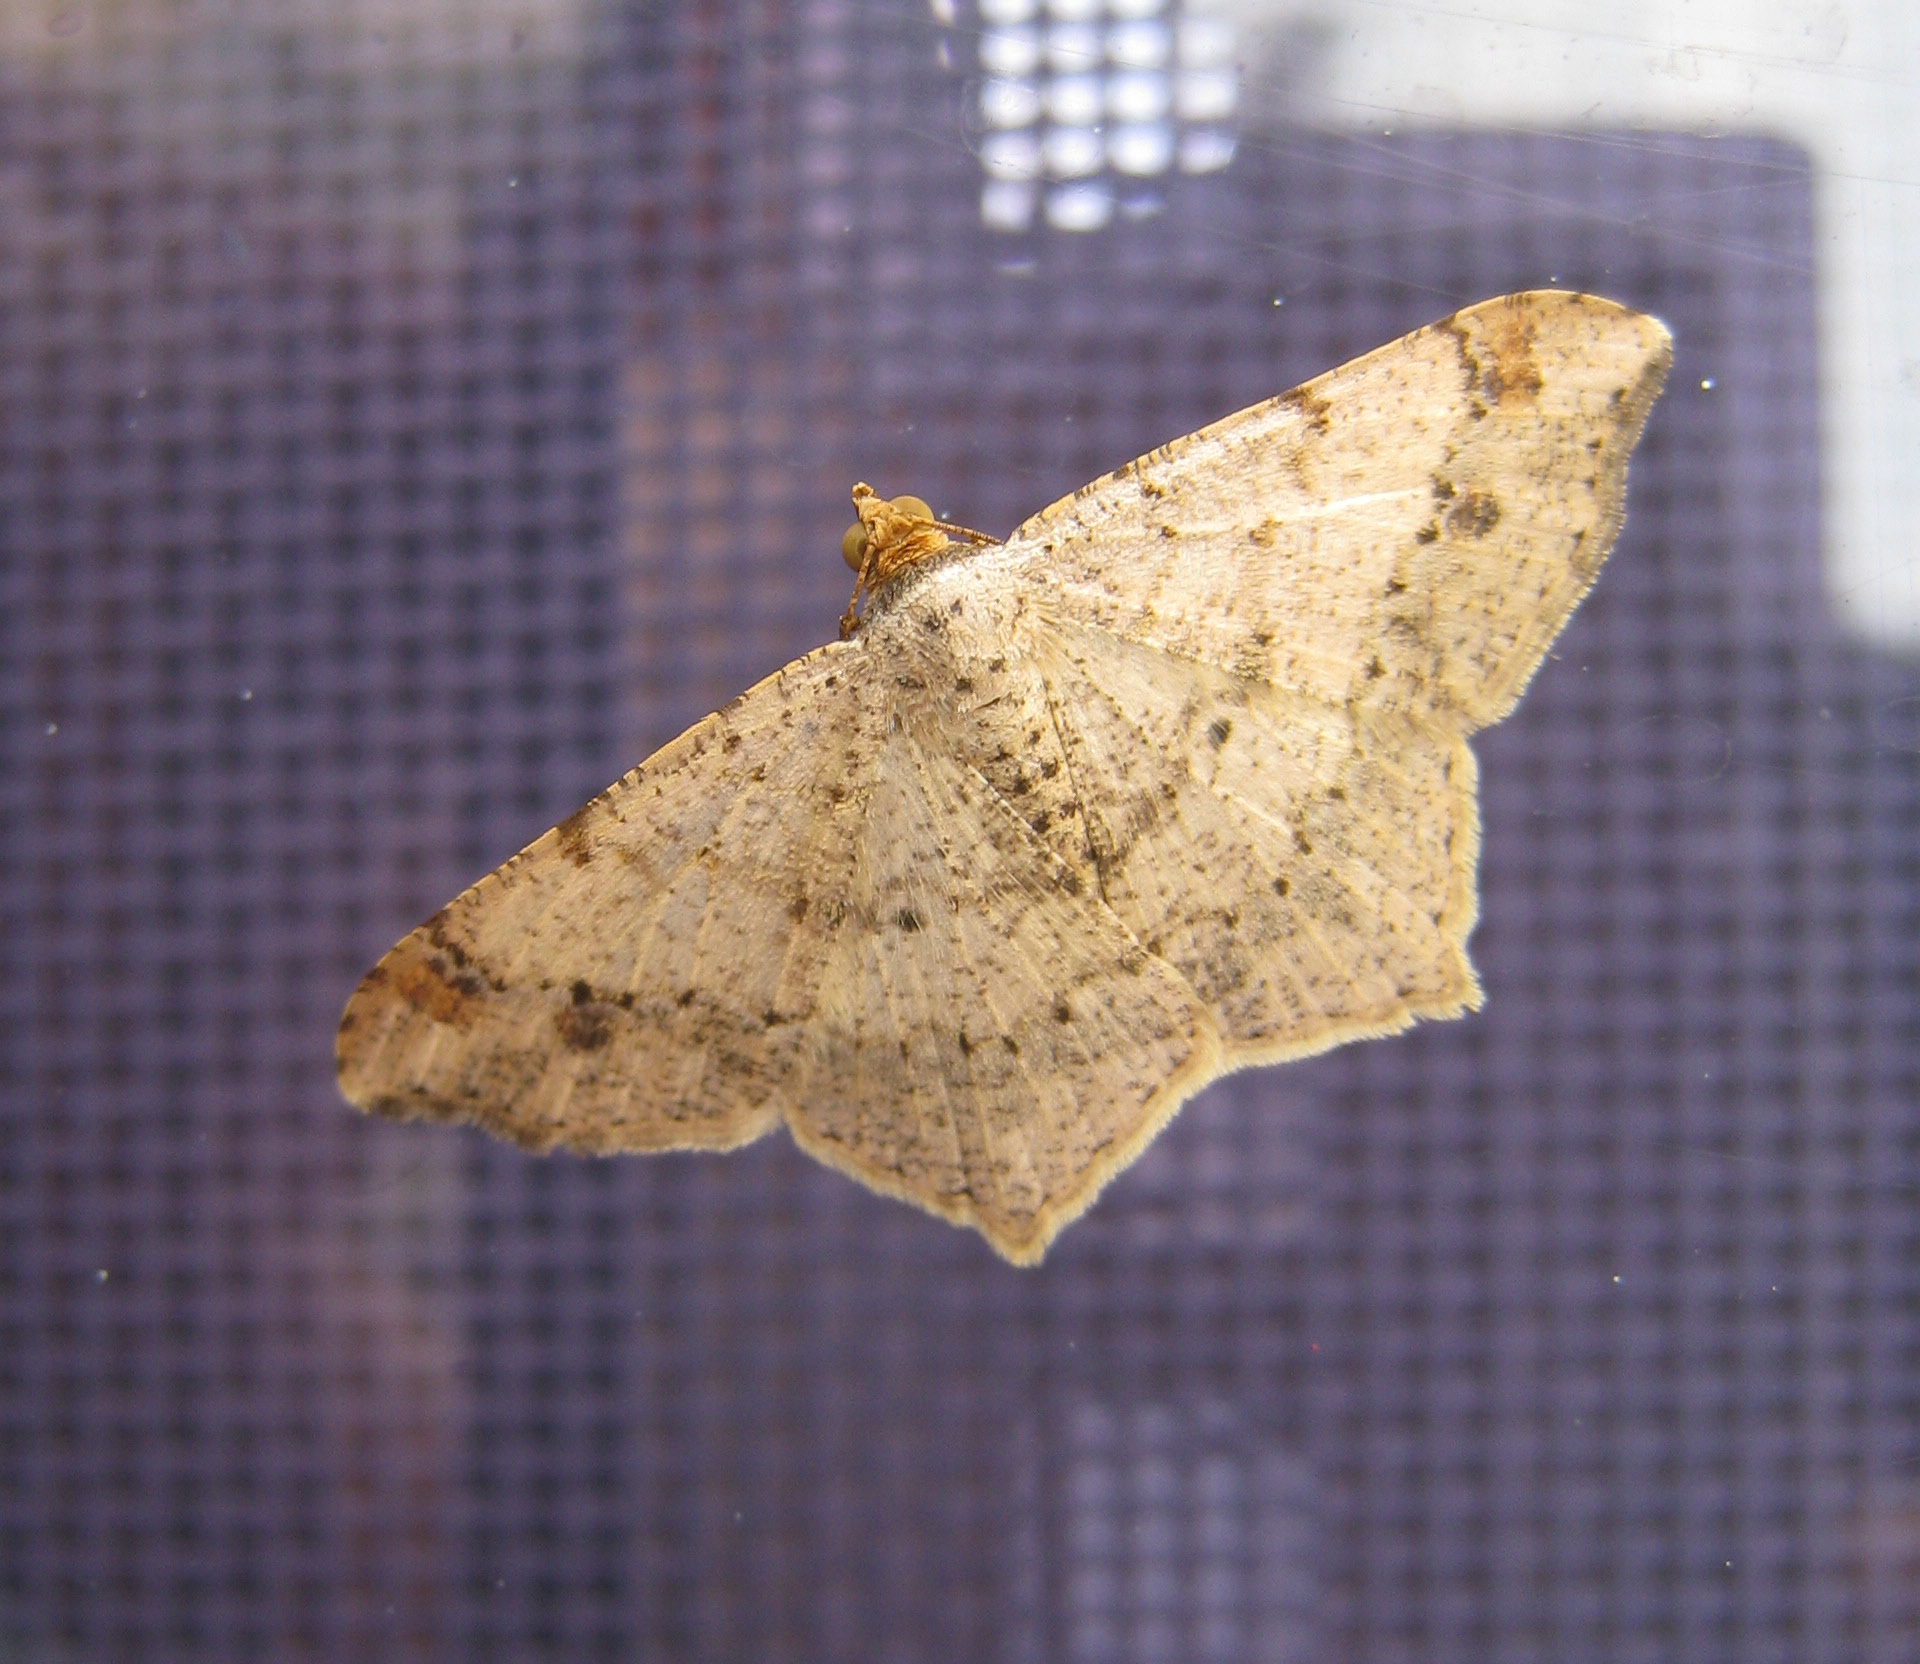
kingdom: Animalia
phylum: Arthropoda
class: Insecta
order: Lepidoptera
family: Geometridae
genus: Macaria
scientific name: Macaria abydata
